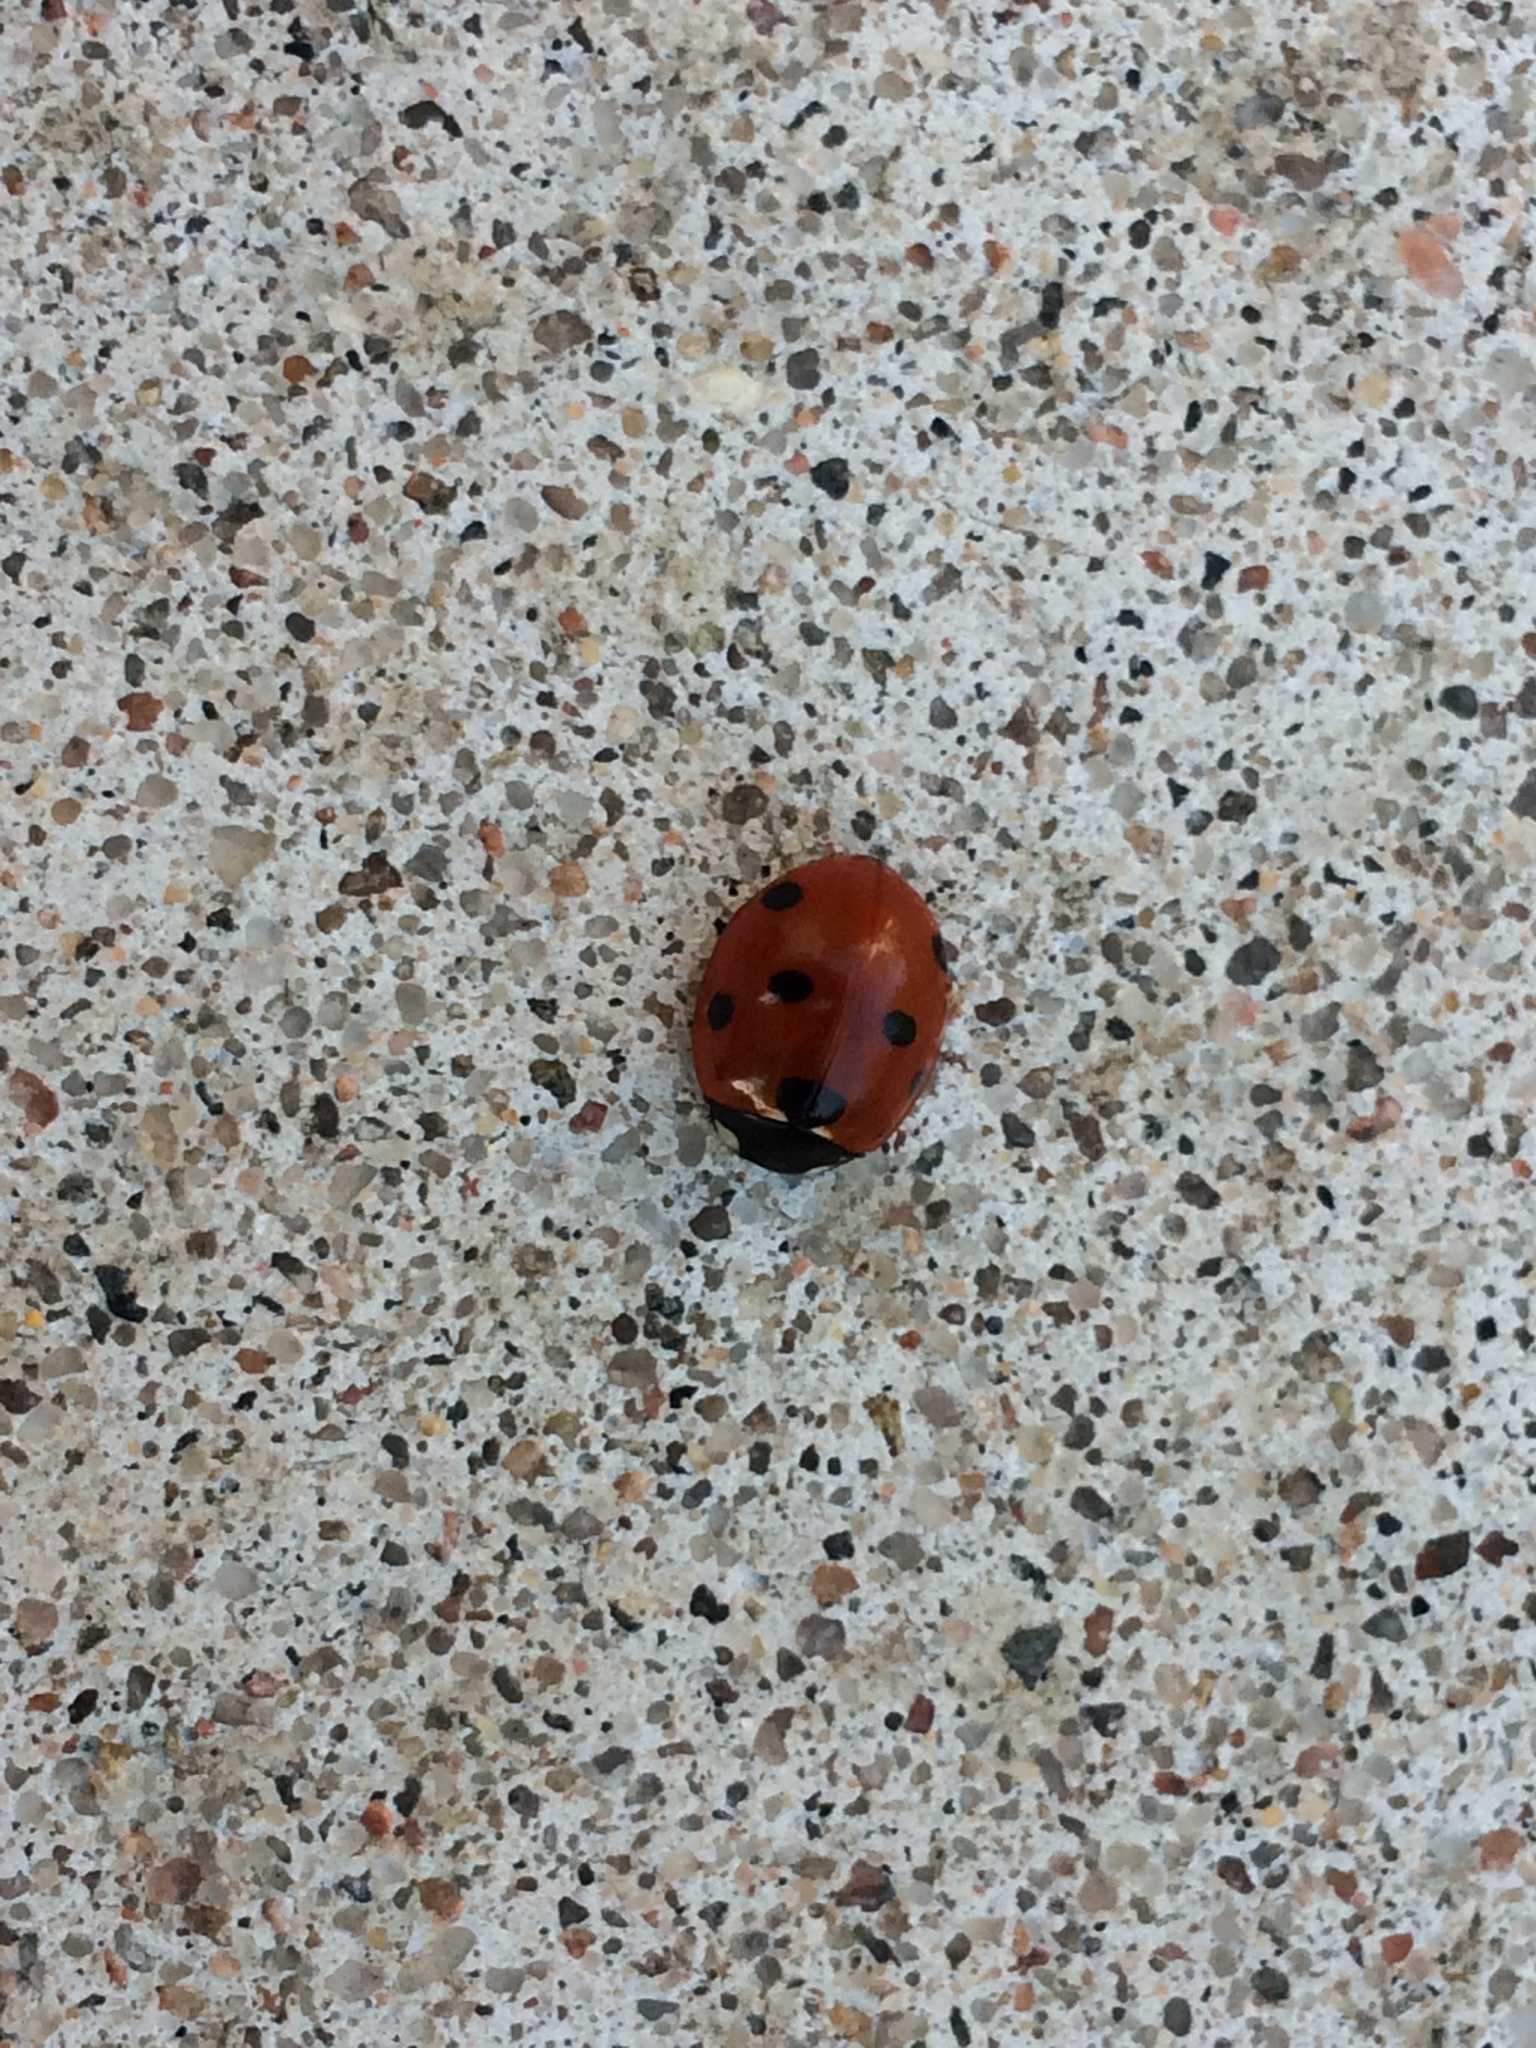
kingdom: Animalia
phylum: Arthropoda
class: Insecta
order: Coleoptera
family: Coccinellidae
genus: Coccinella
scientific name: Coccinella septempunctata
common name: Sevenspotted lady beetle
